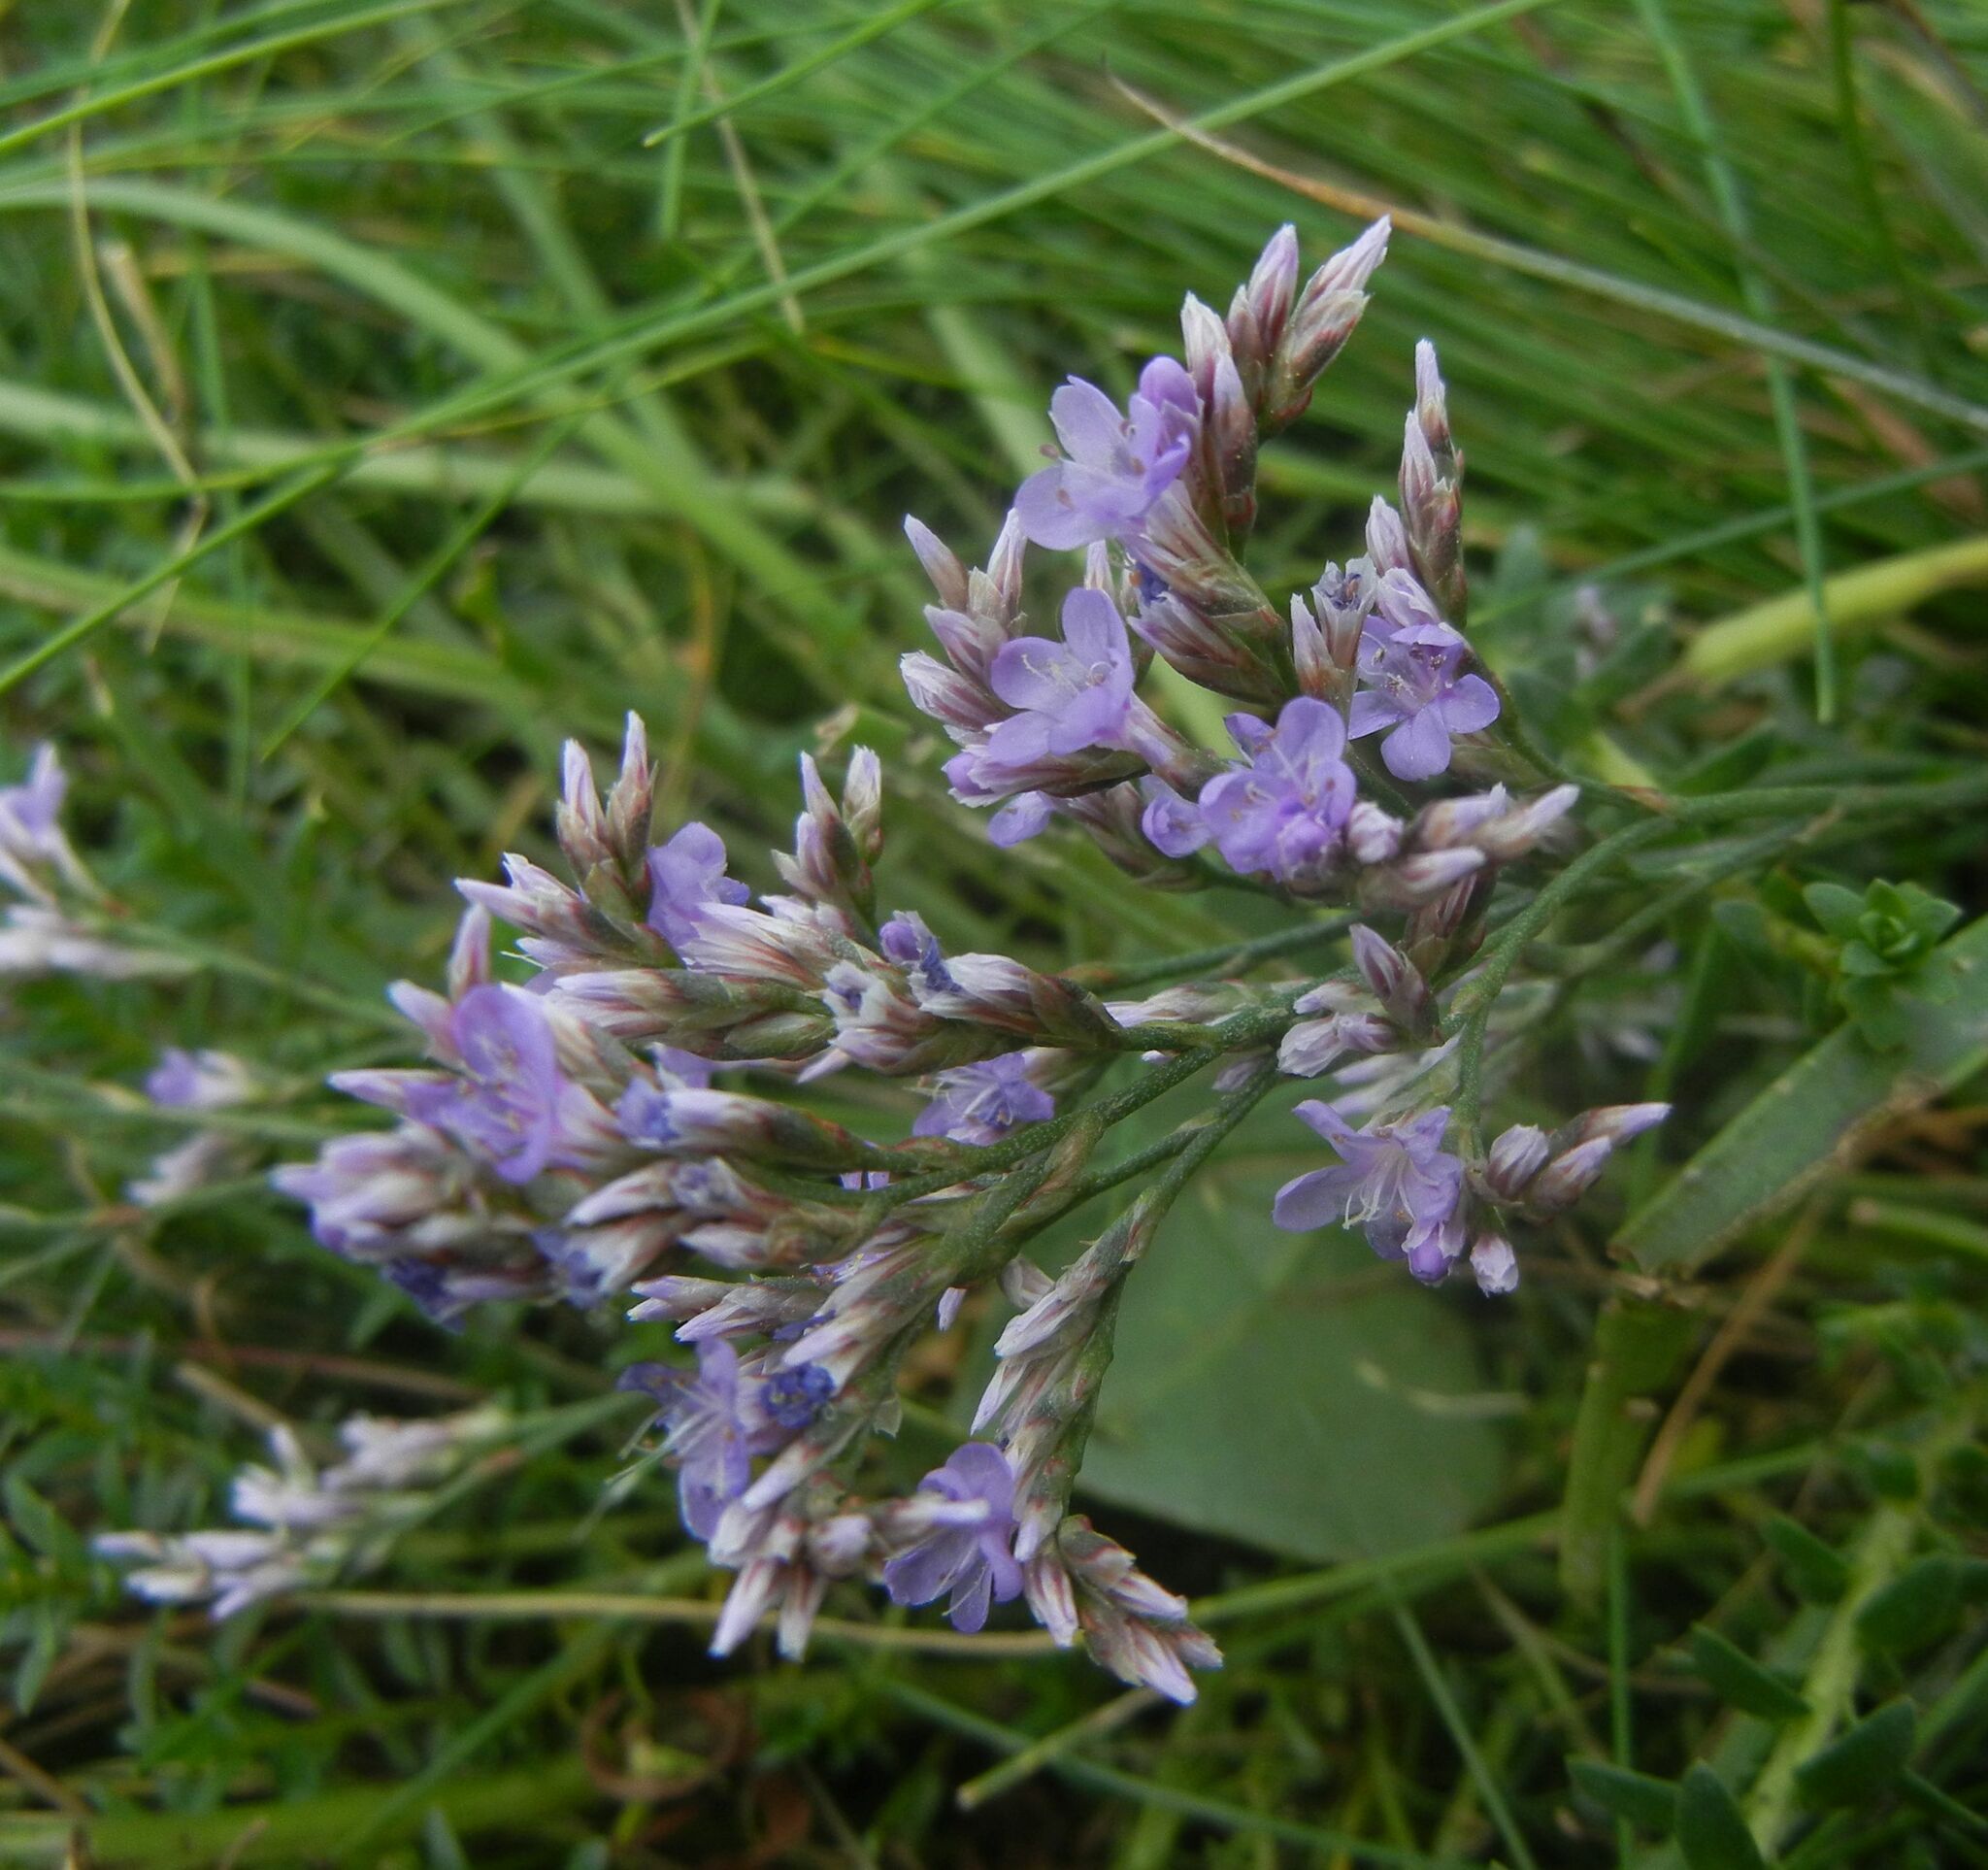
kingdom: Plantae
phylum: Tracheophyta
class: Magnoliopsida
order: Caryophyllales
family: Plumbaginaceae
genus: Limonium
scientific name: Limonium vulgare
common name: Common sea-lavender
